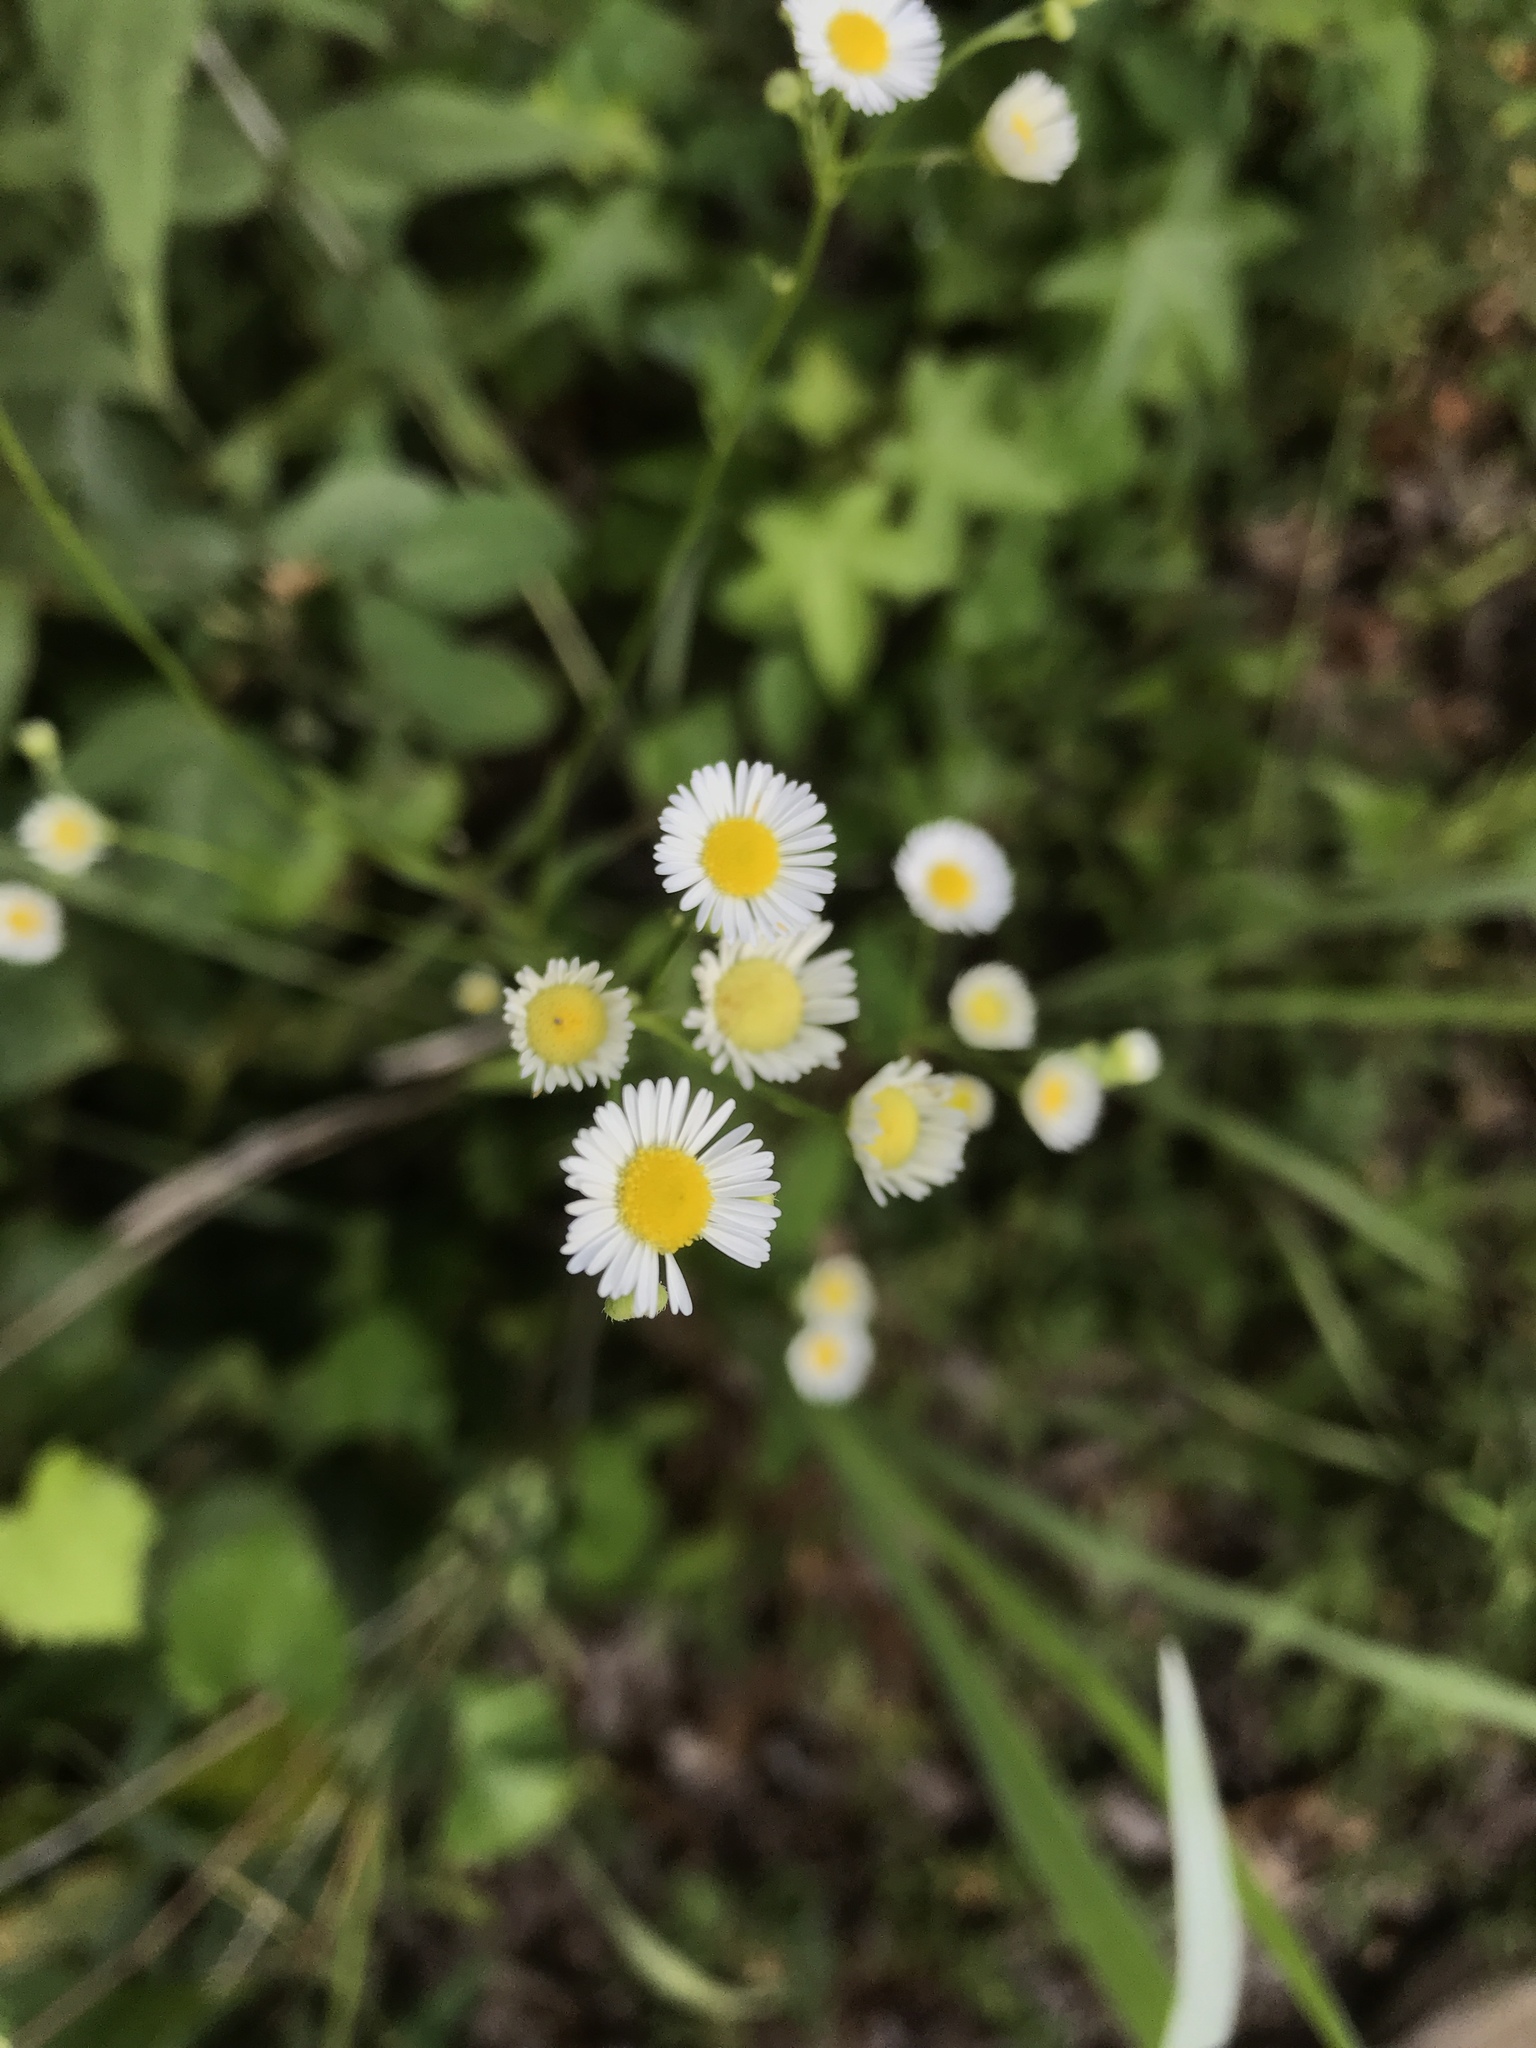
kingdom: Plantae
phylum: Tracheophyta
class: Magnoliopsida
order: Asterales
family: Asteraceae
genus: Erigeron
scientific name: Erigeron strigosus
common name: Common eastern fleabane
